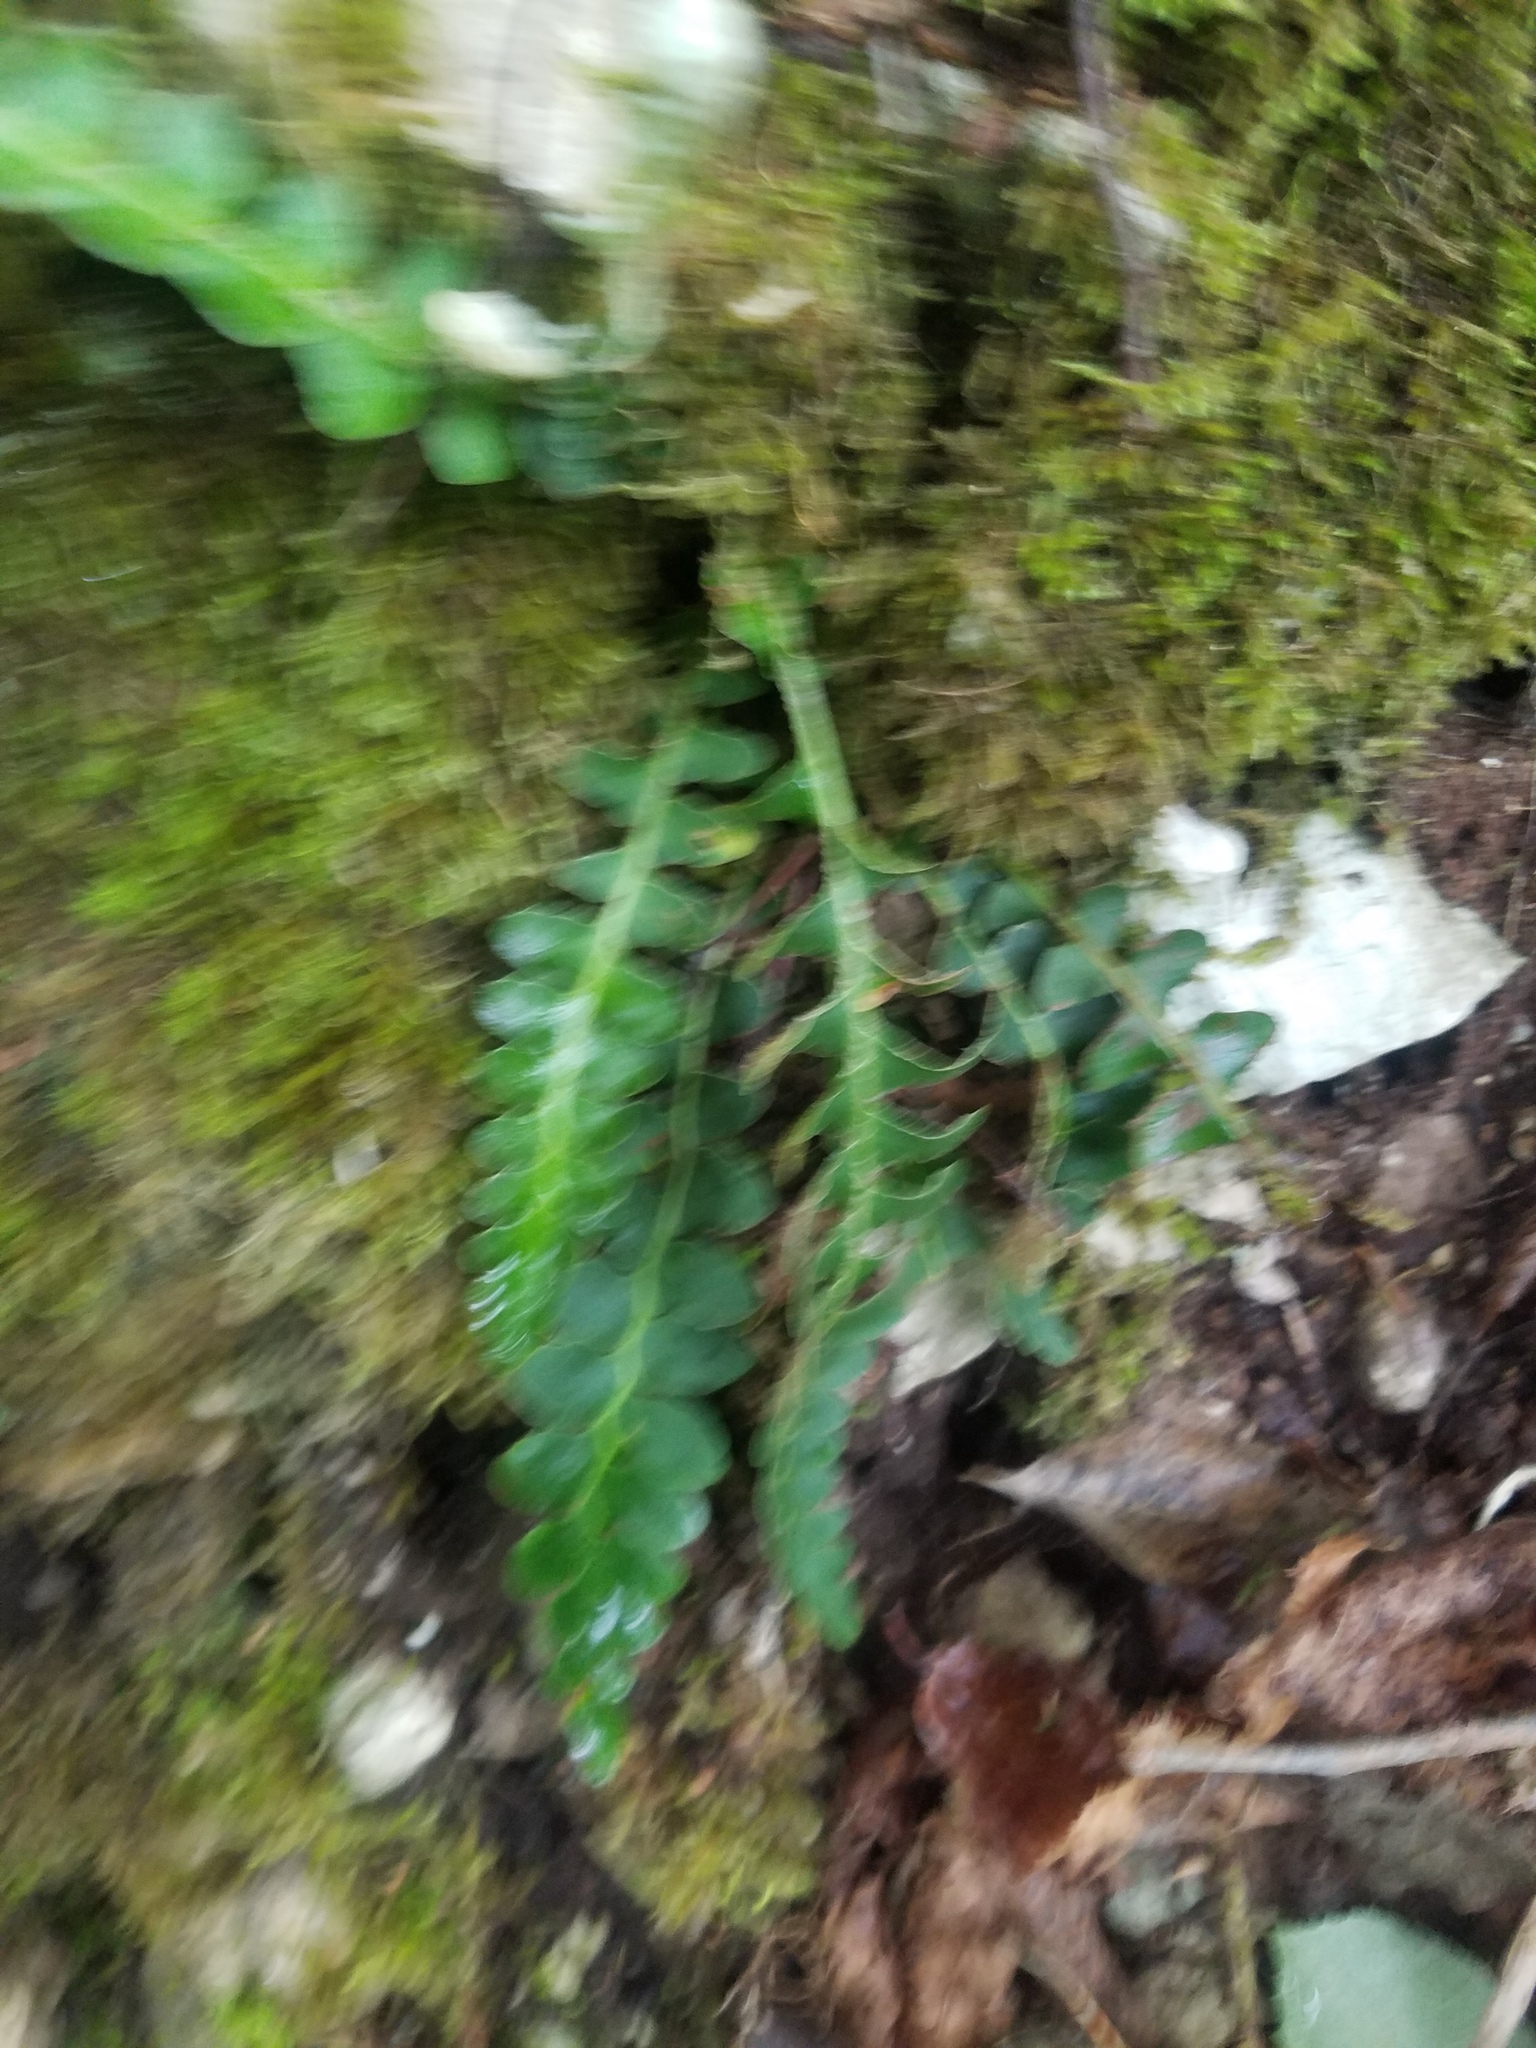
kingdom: Plantae
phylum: Tracheophyta
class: Polypodiopsida
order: Polypodiales
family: Aspleniaceae
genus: Asplenium
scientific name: Asplenium ceterach
